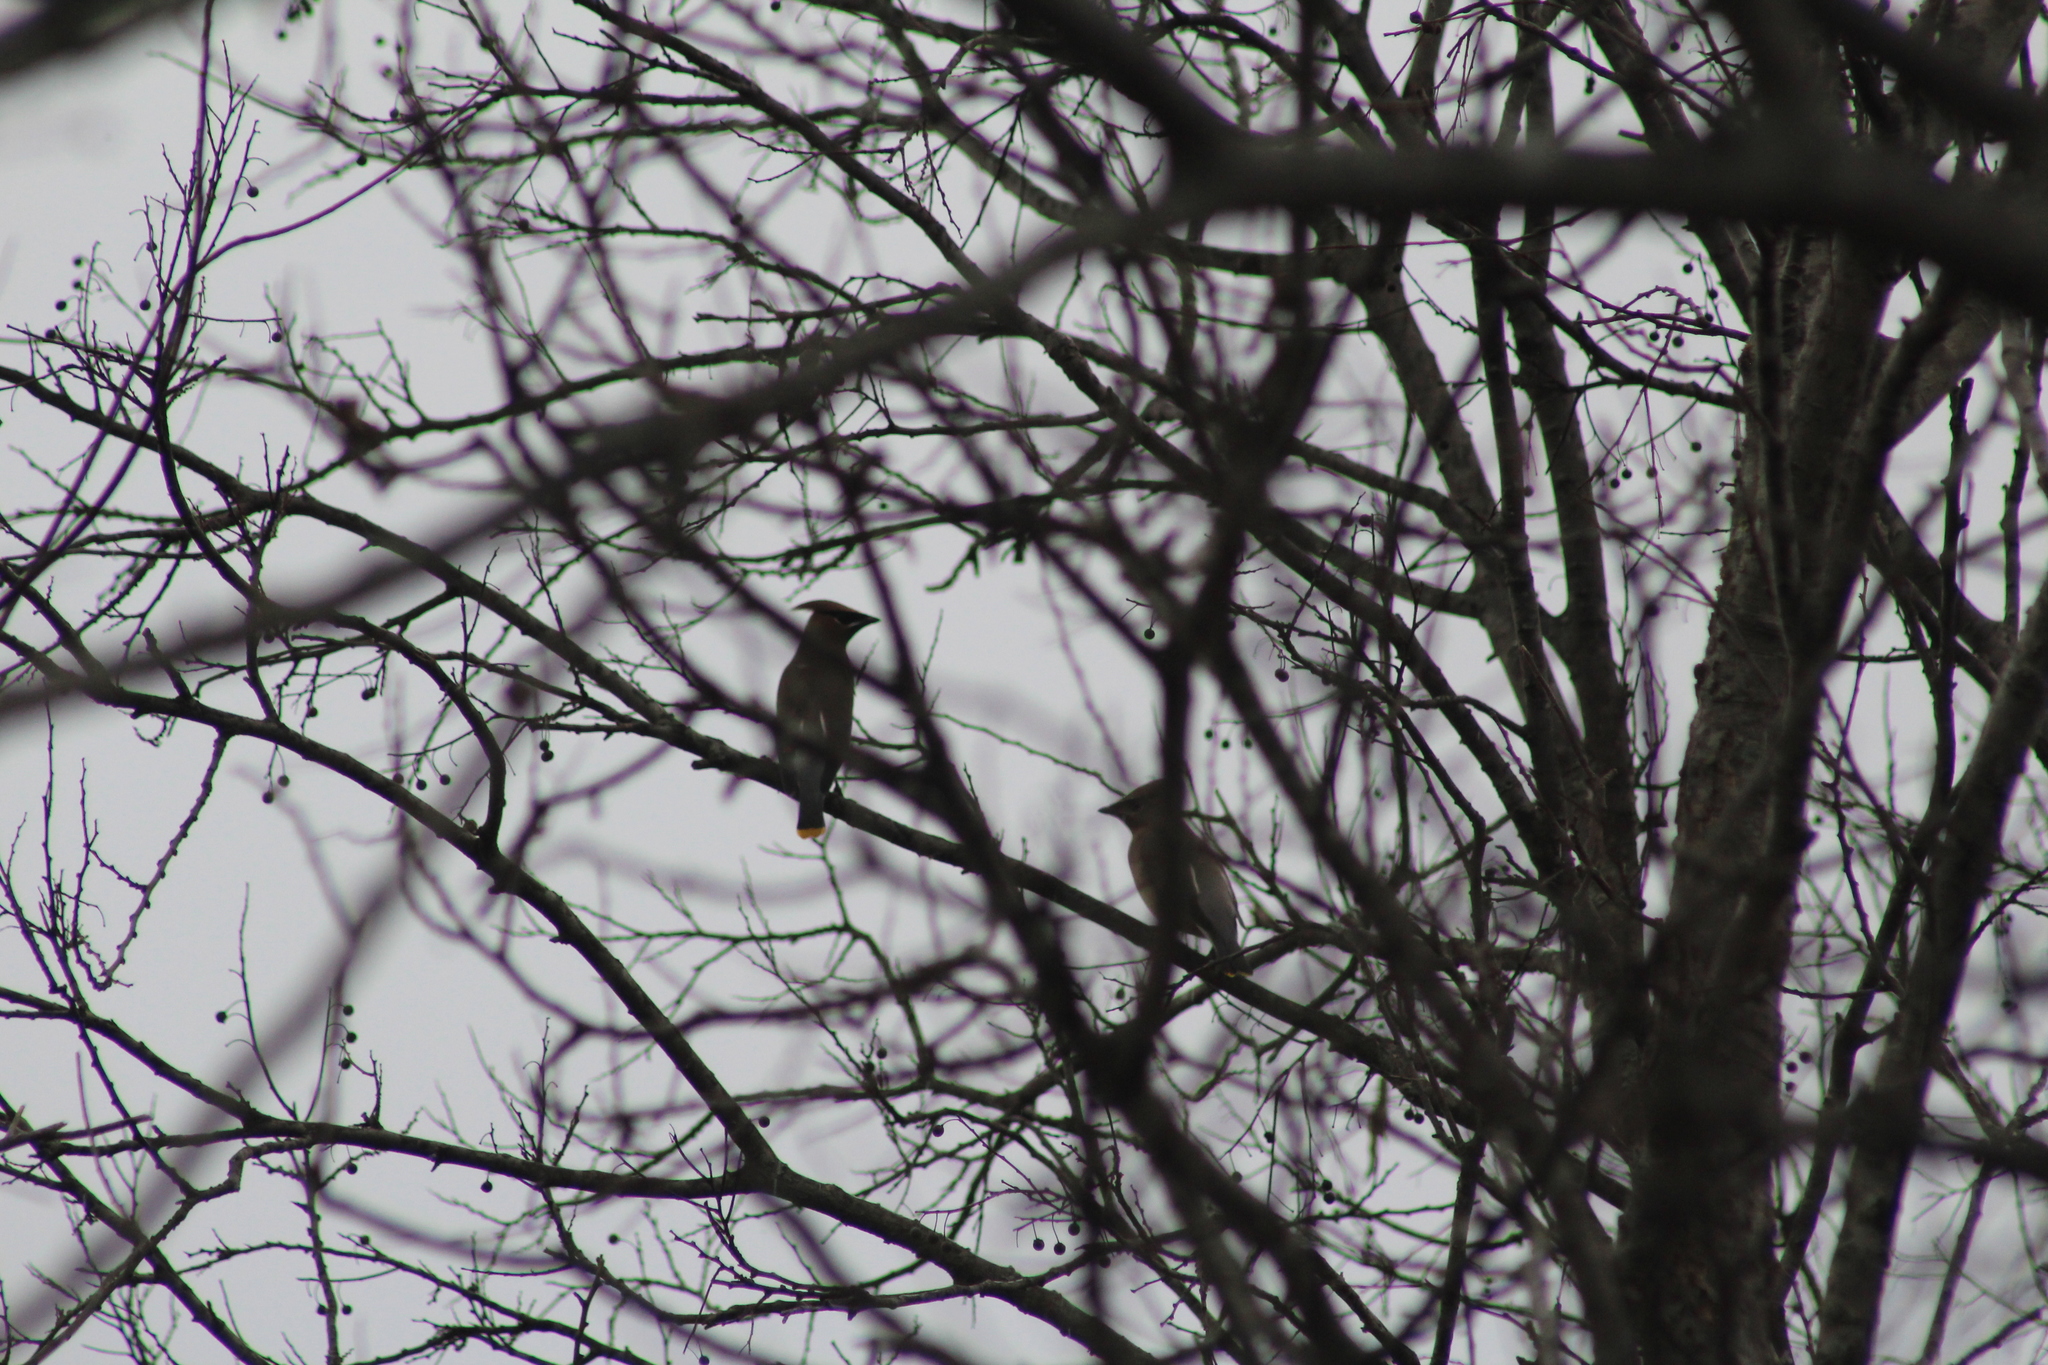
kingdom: Animalia
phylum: Chordata
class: Aves
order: Passeriformes
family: Bombycillidae
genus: Bombycilla
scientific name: Bombycilla cedrorum
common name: Cedar waxwing
